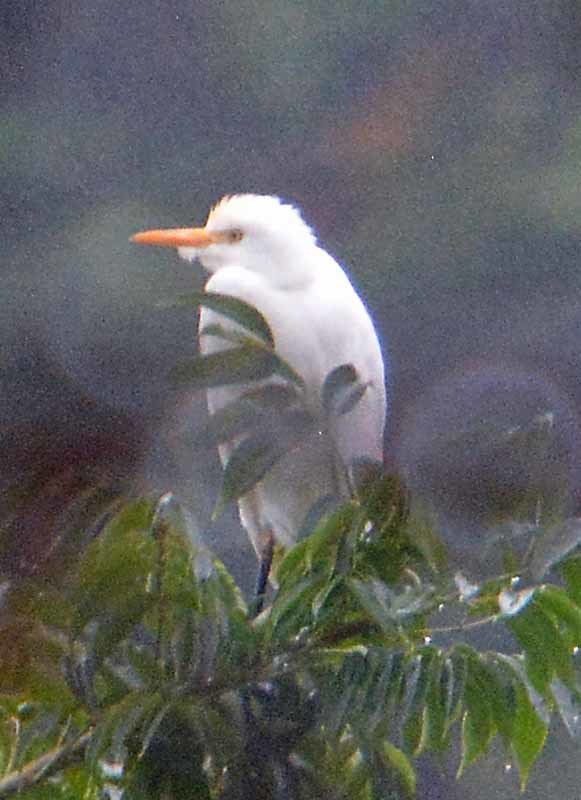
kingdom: Animalia
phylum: Chordata
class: Aves
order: Pelecaniformes
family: Ardeidae
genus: Bubulcus
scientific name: Bubulcus ibis
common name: Cattle egret
